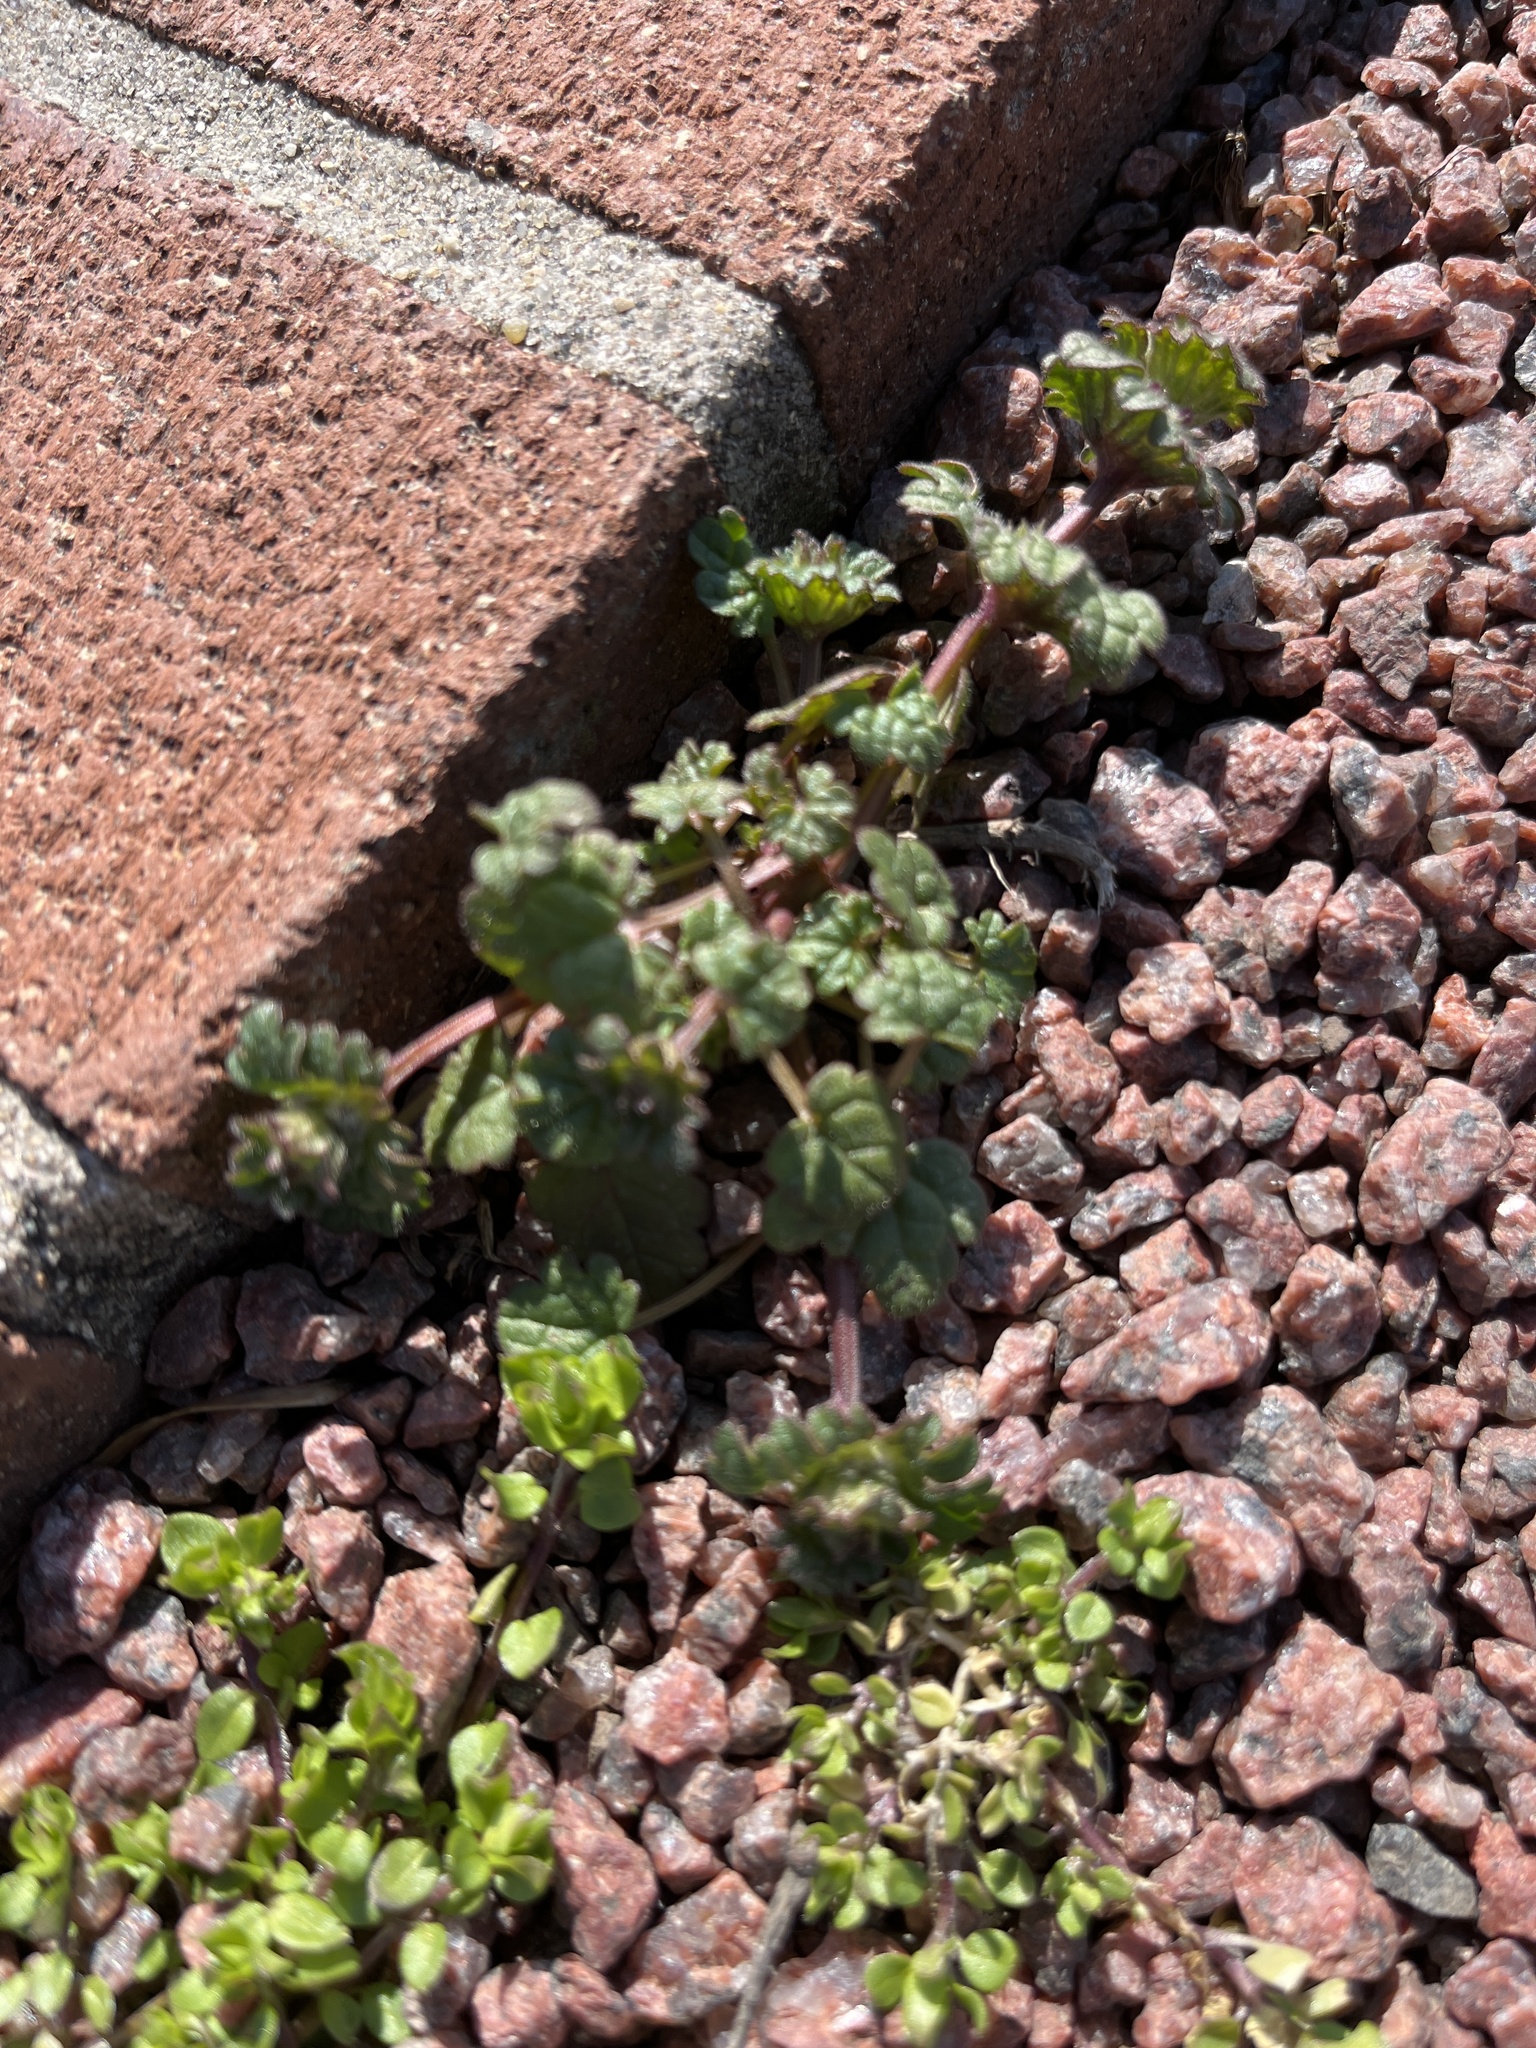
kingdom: Plantae
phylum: Tracheophyta
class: Magnoliopsida
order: Lamiales
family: Lamiaceae
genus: Lamium
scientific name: Lamium amplexicaule
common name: Henbit dead-nettle
